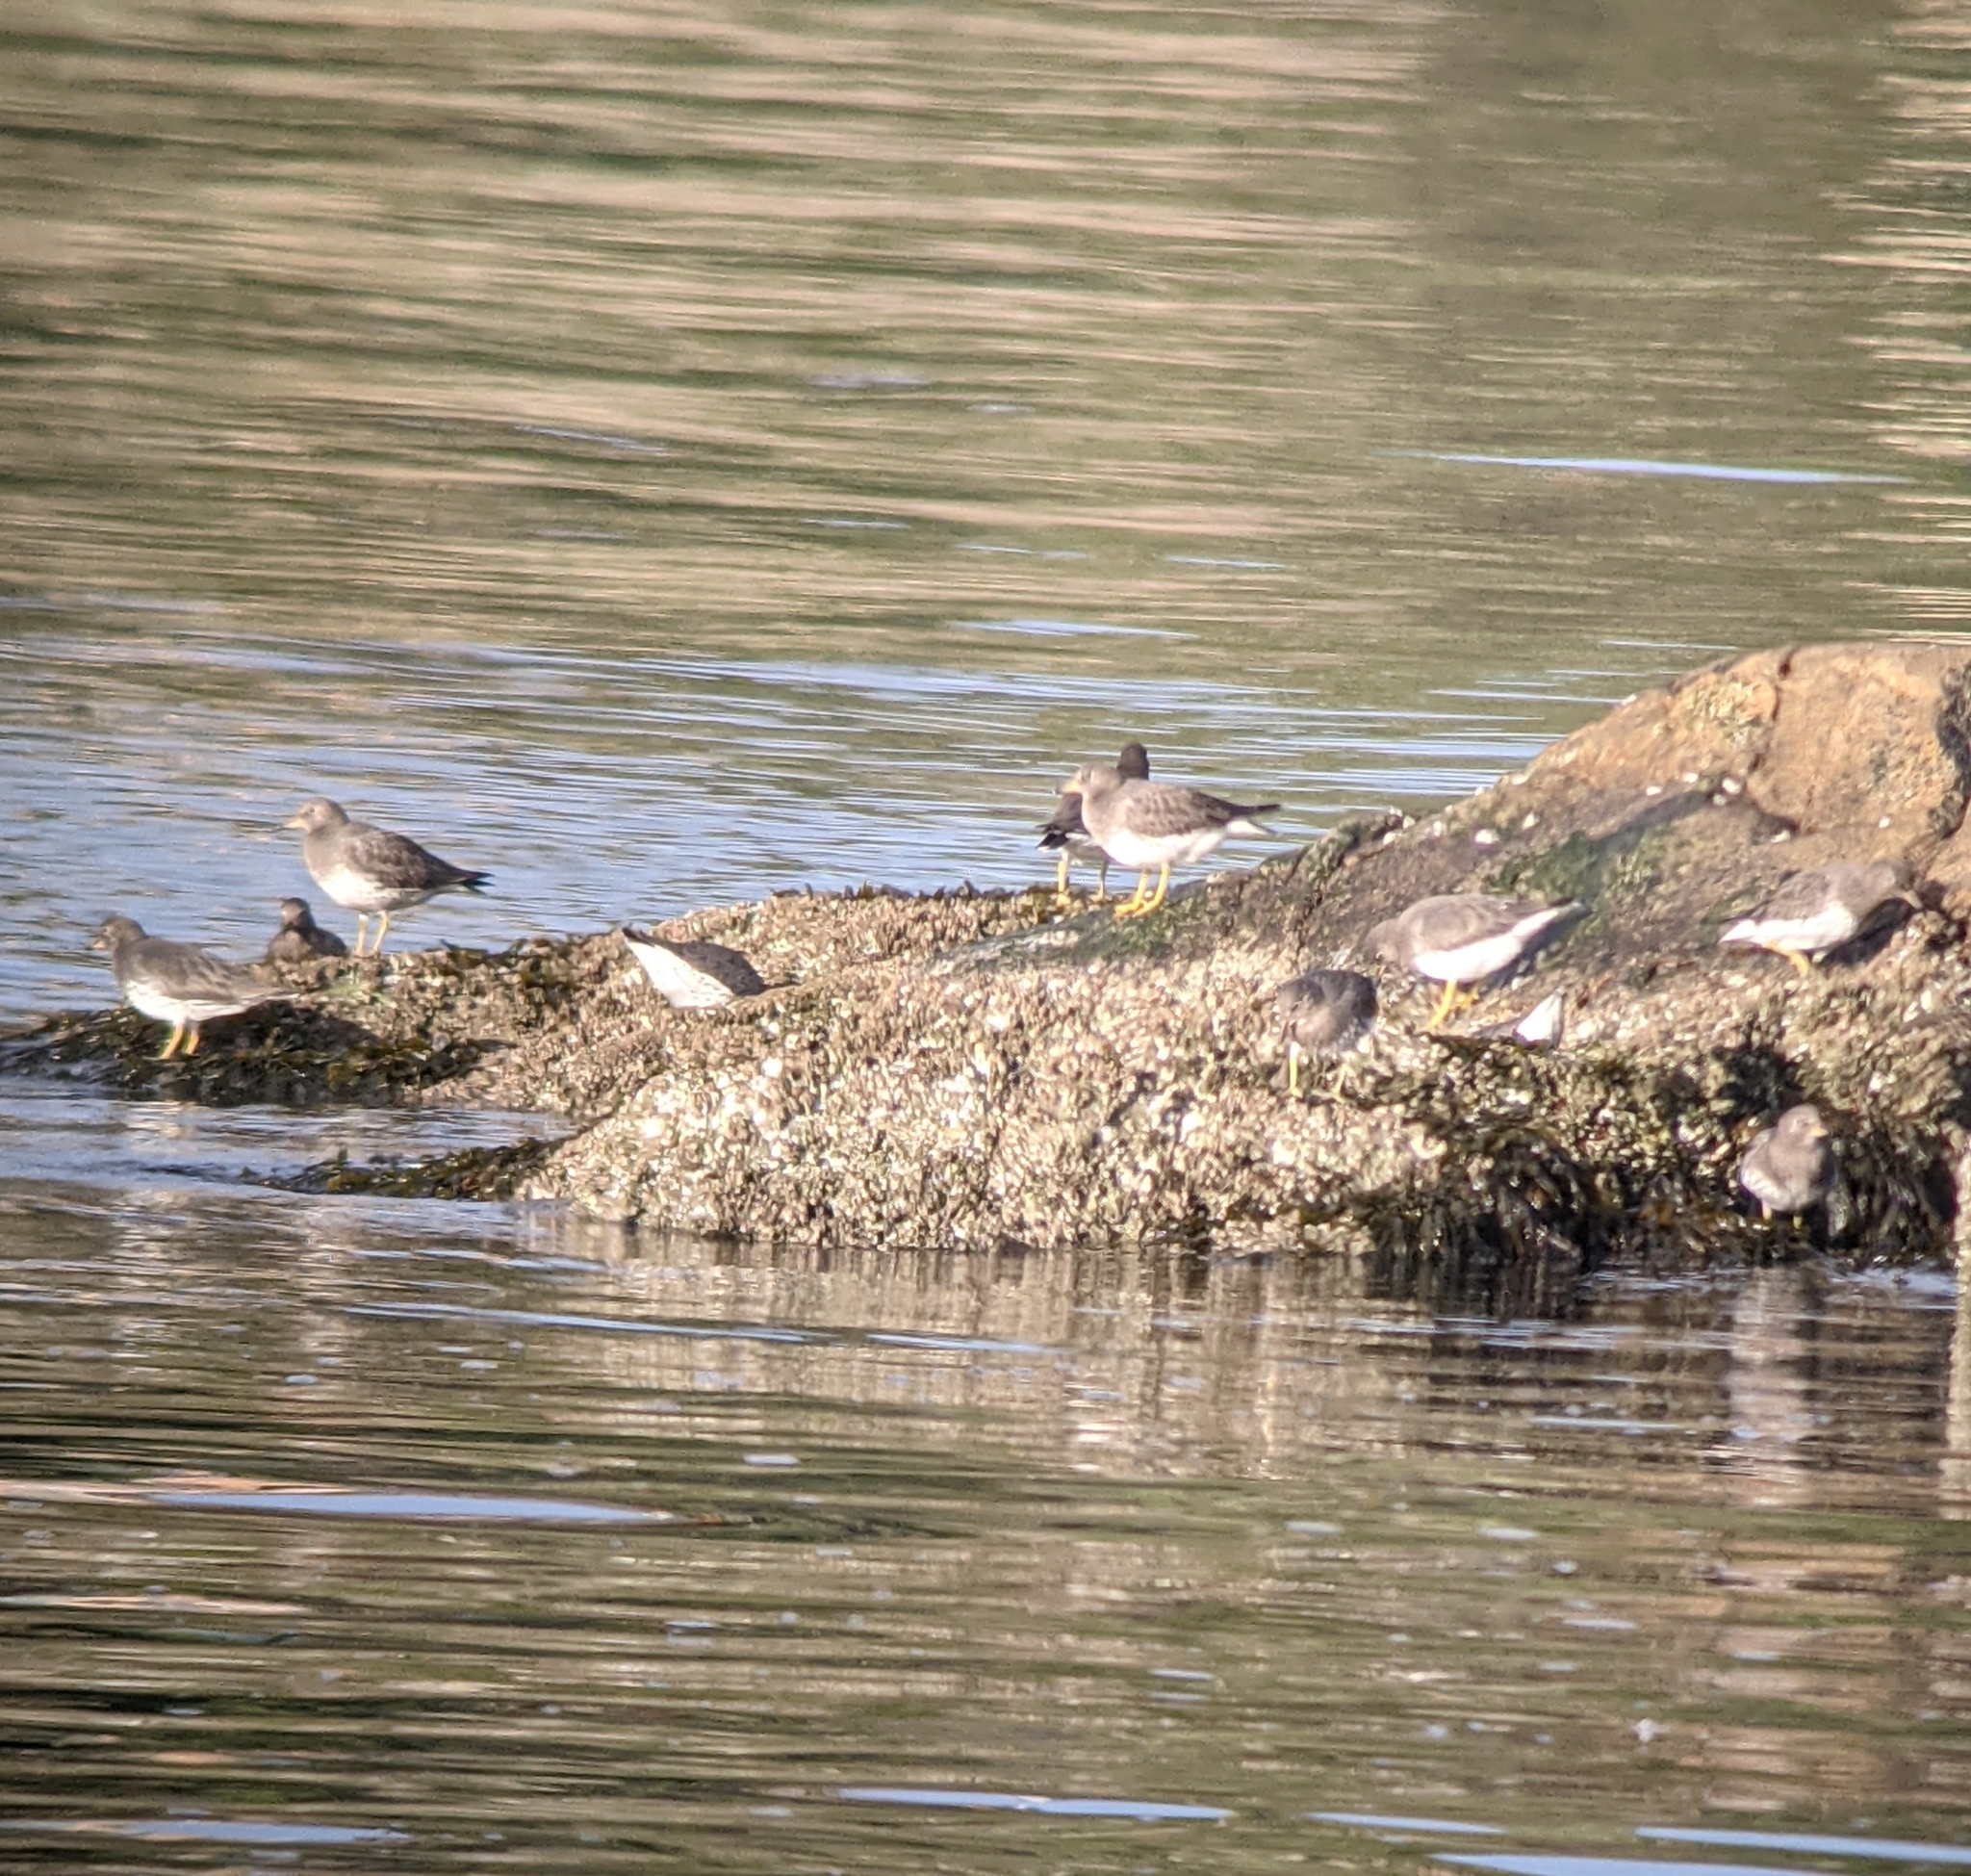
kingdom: Animalia
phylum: Chordata
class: Aves
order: Charadriiformes
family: Scolopacidae
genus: Calidris
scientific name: Calidris virgata
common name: Surfbird
